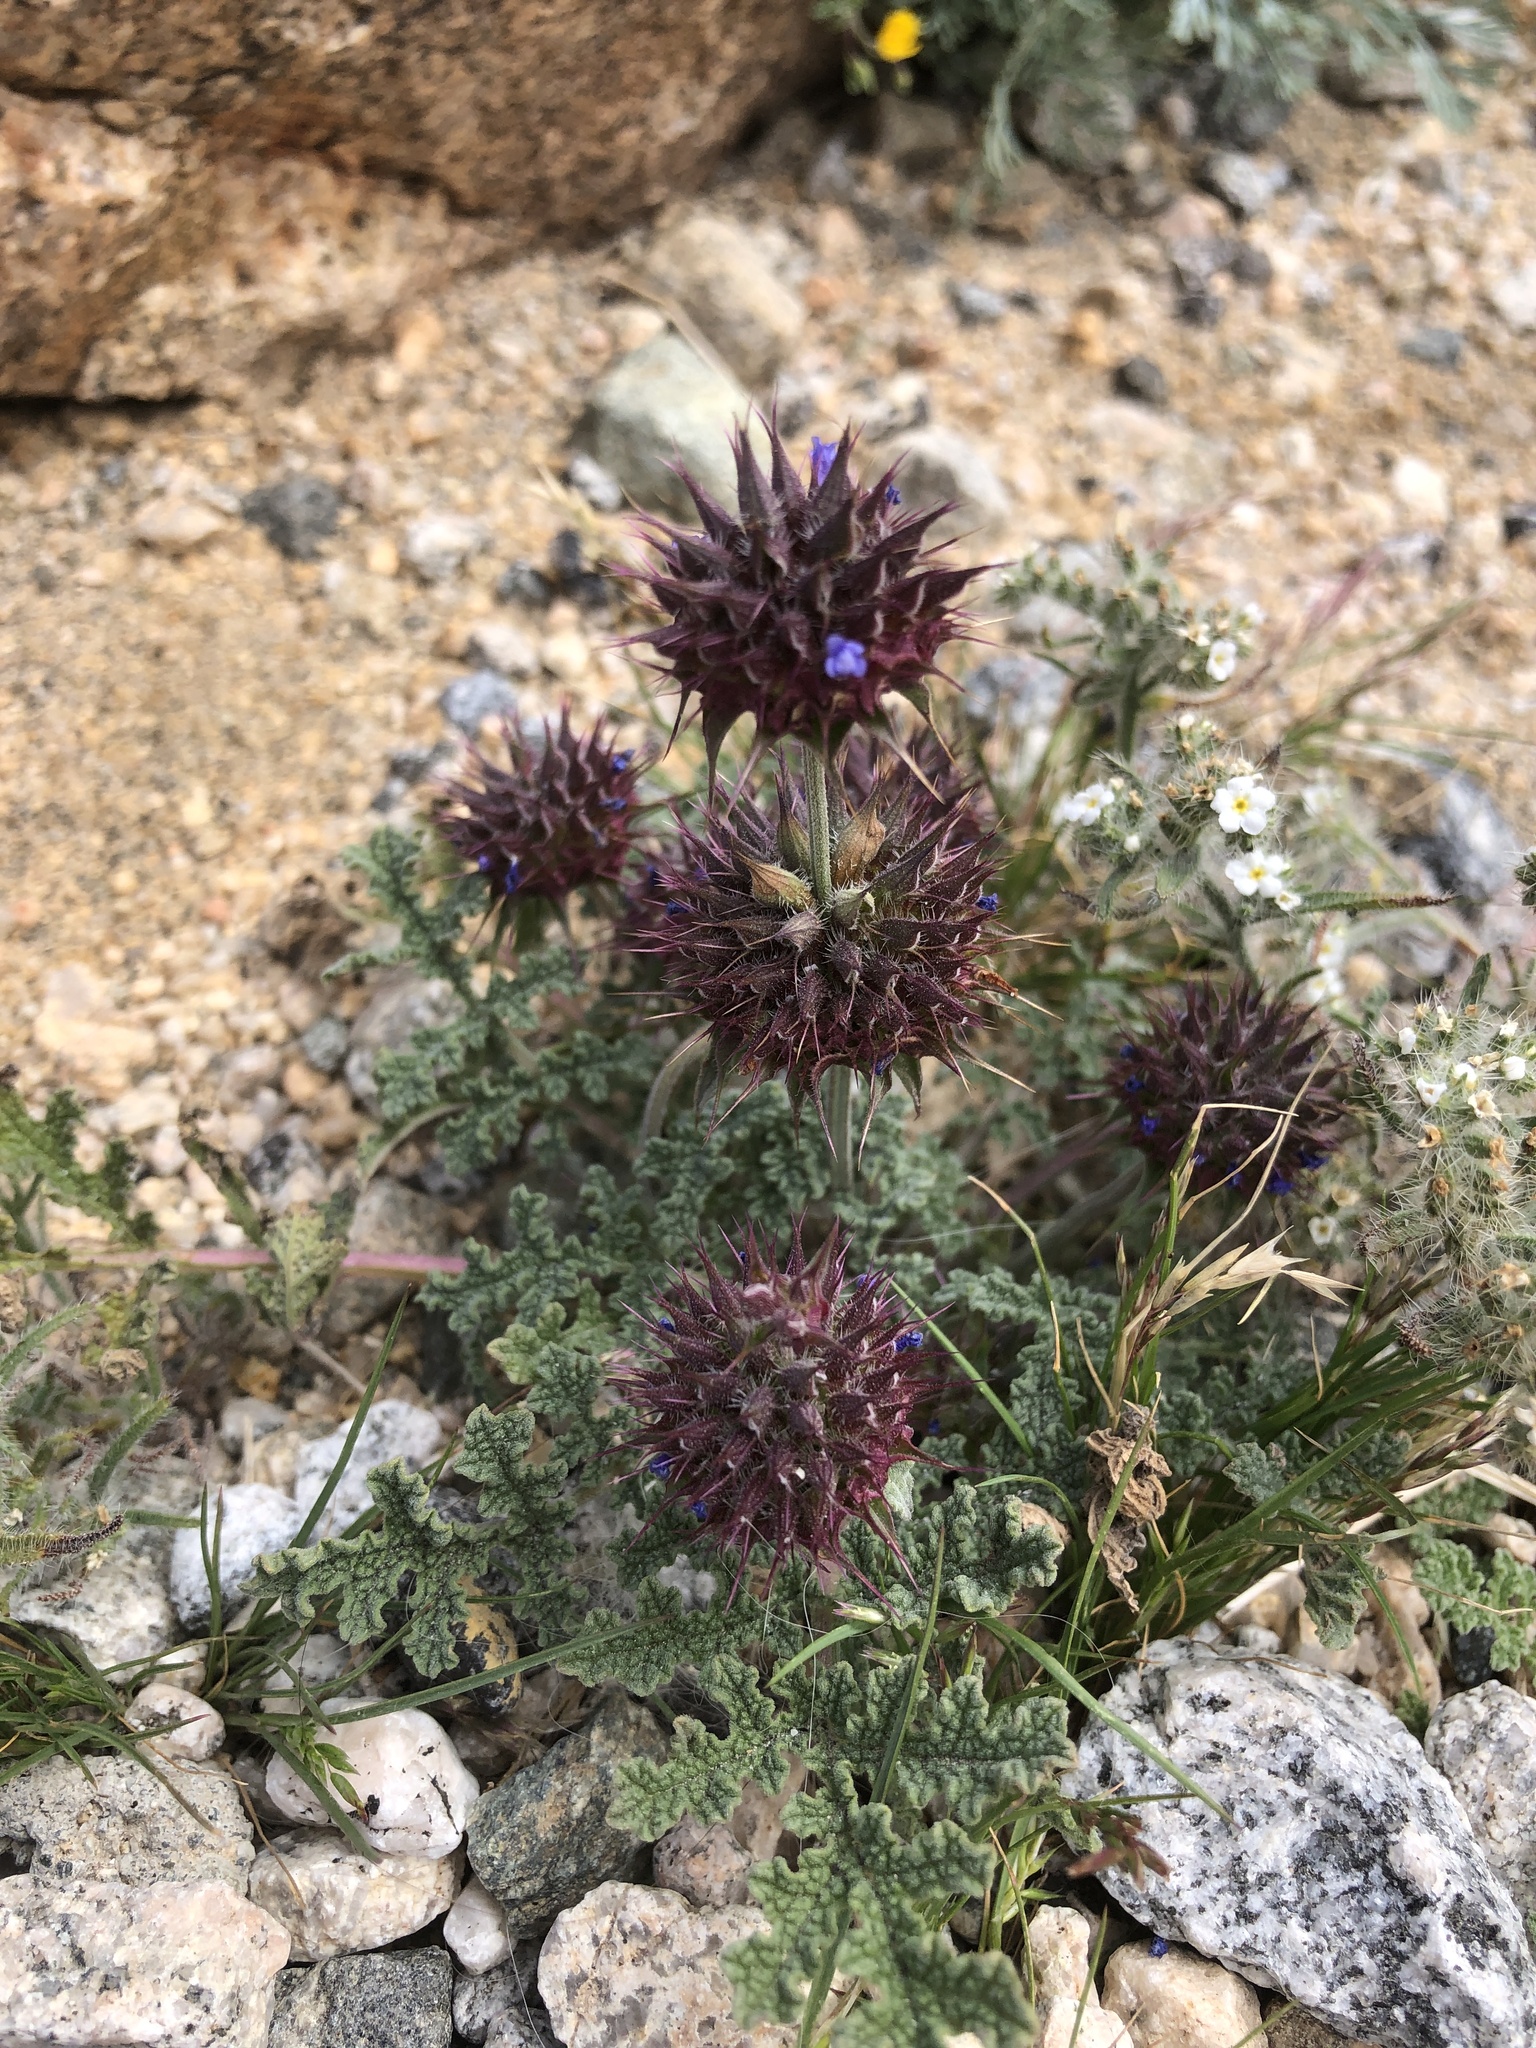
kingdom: Plantae
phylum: Tracheophyta
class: Magnoliopsida
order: Lamiales
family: Lamiaceae
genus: Salvia
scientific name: Salvia columbariae
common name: Chia
